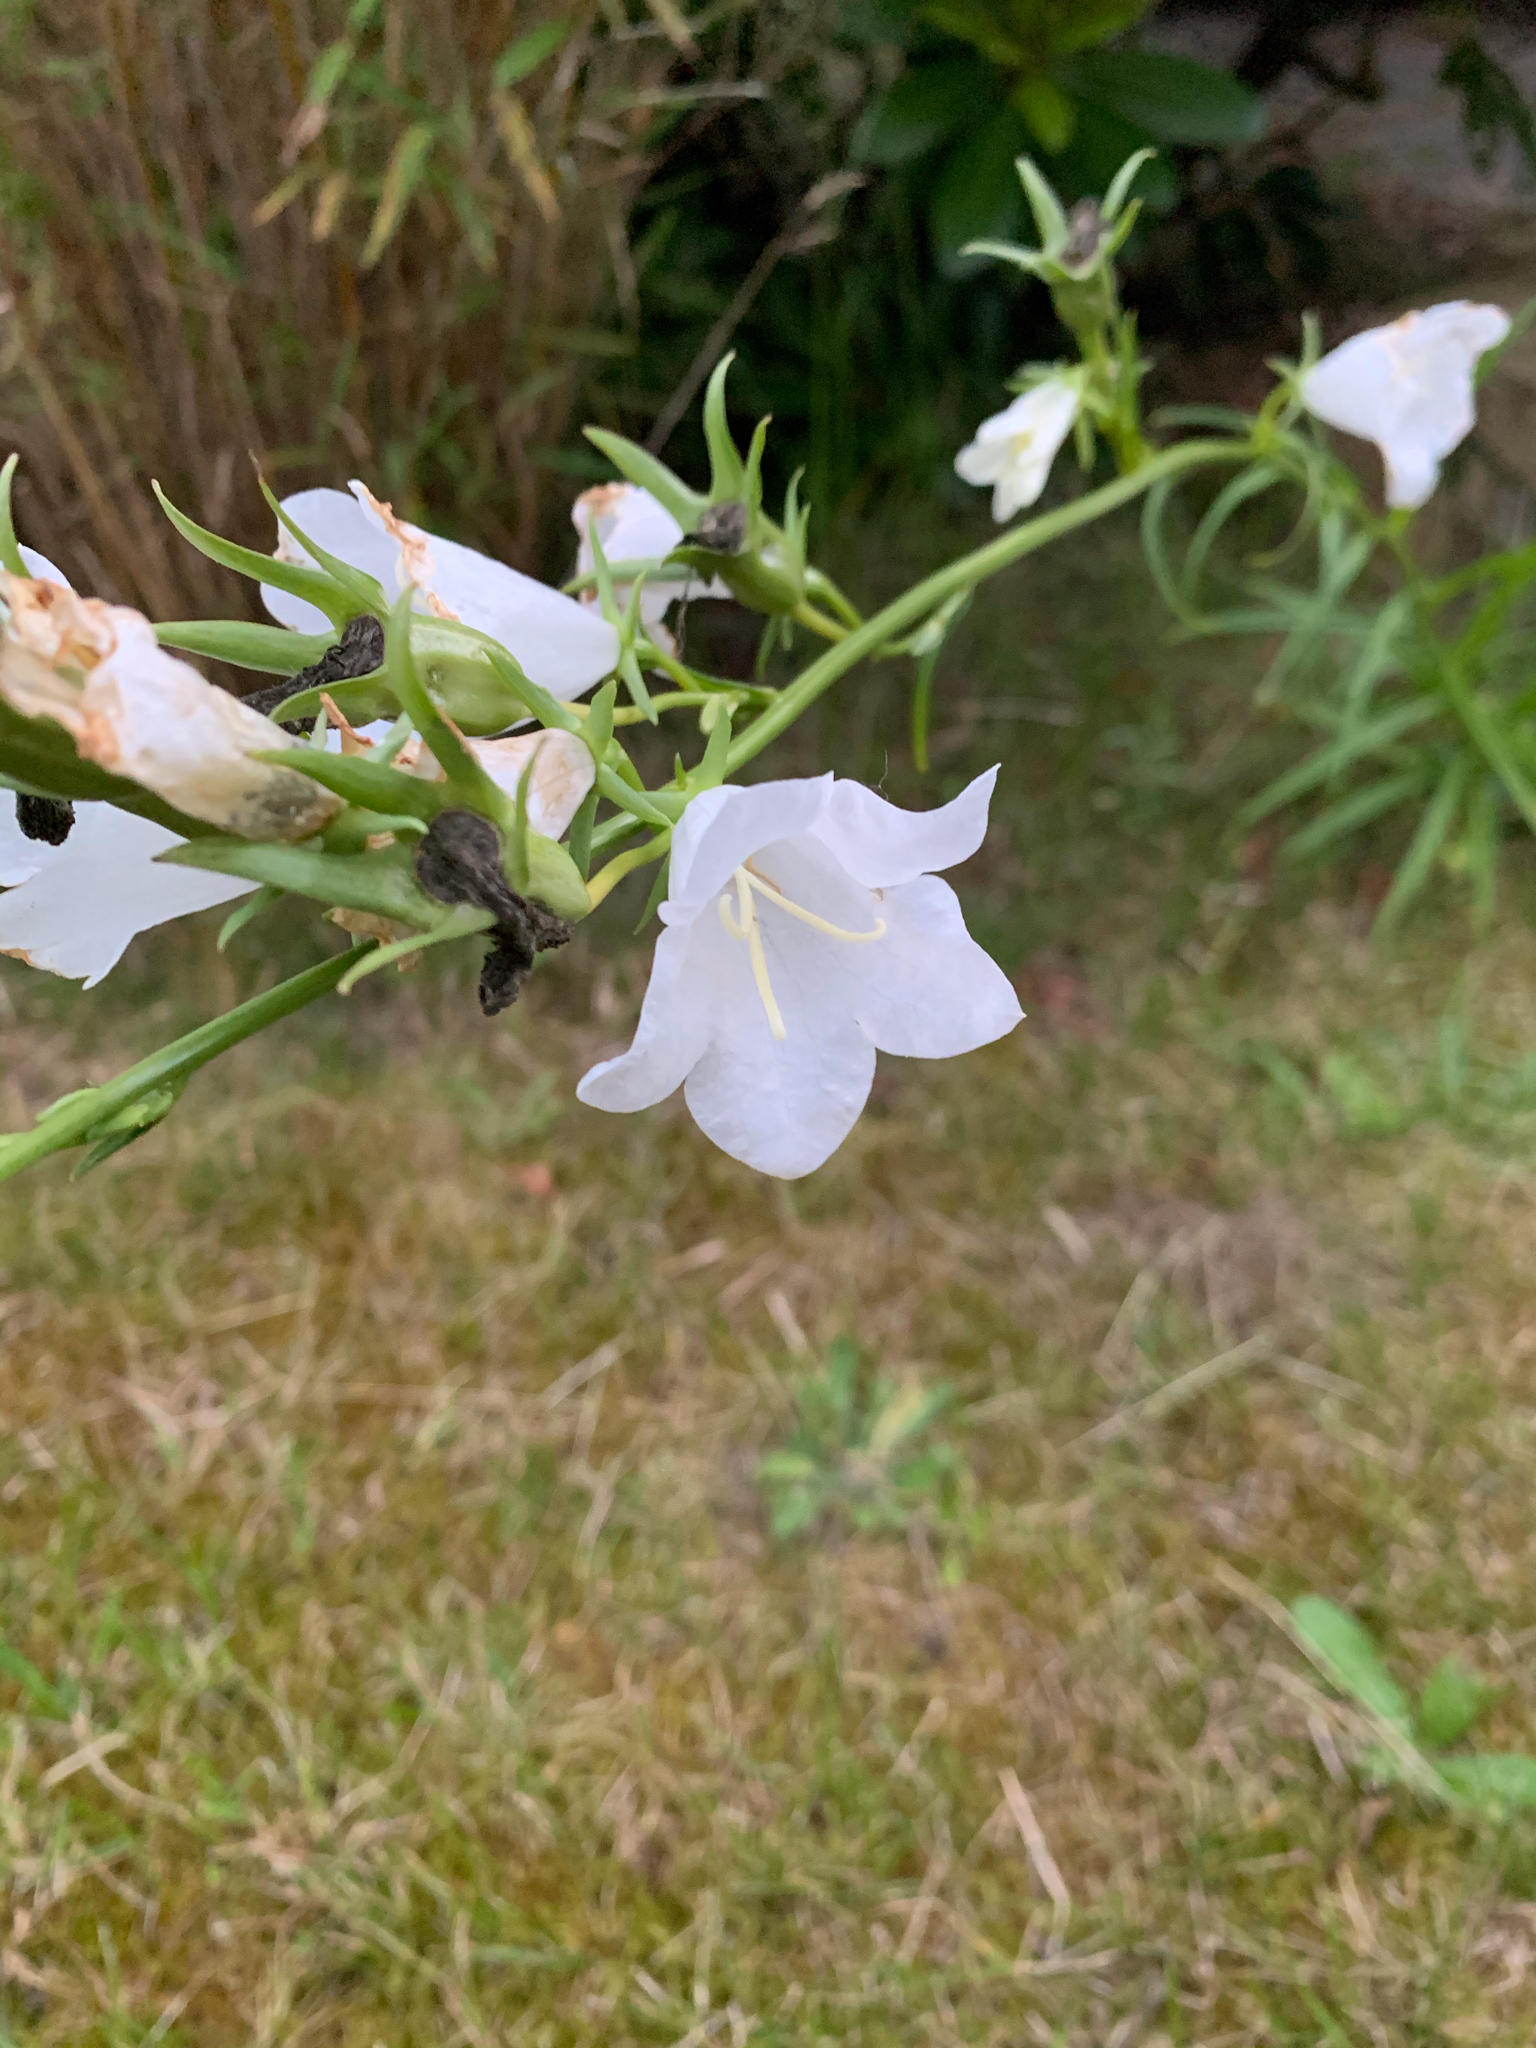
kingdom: Plantae
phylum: Tracheophyta
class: Magnoliopsida
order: Asterales
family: Campanulaceae
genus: Campanula
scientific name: Campanula persicifolia
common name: Peach-leaved bellflower
